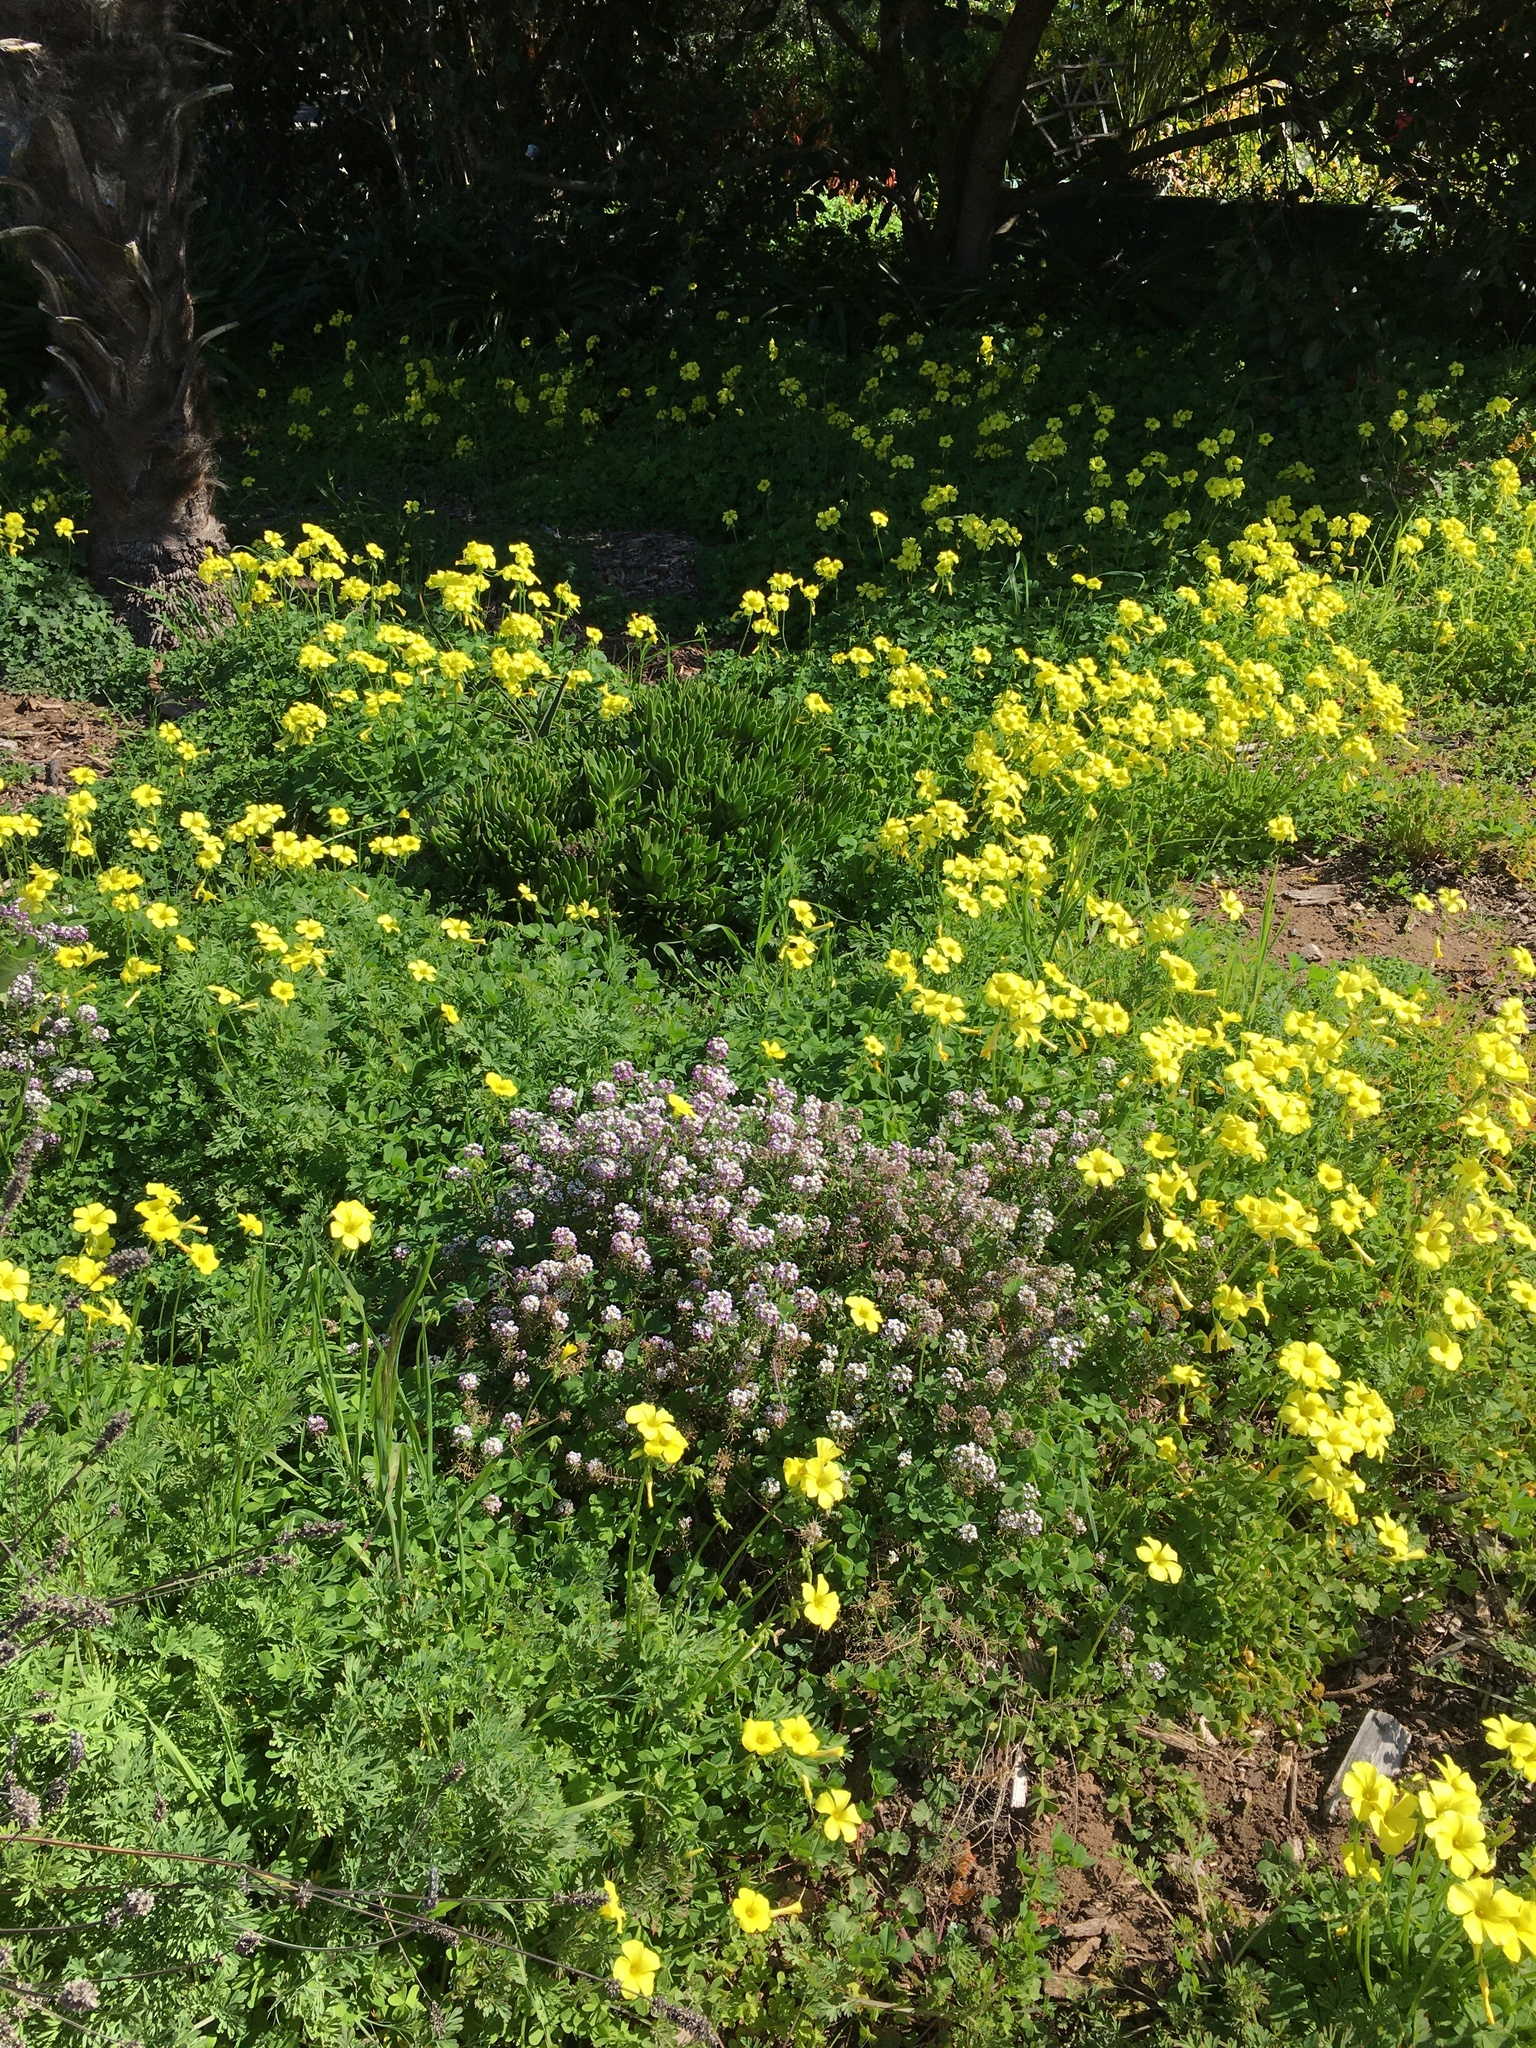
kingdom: Plantae
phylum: Tracheophyta
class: Magnoliopsida
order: Oxalidales
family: Oxalidaceae
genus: Oxalis
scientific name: Oxalis pes-caprae
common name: Bermuda-buttercup
